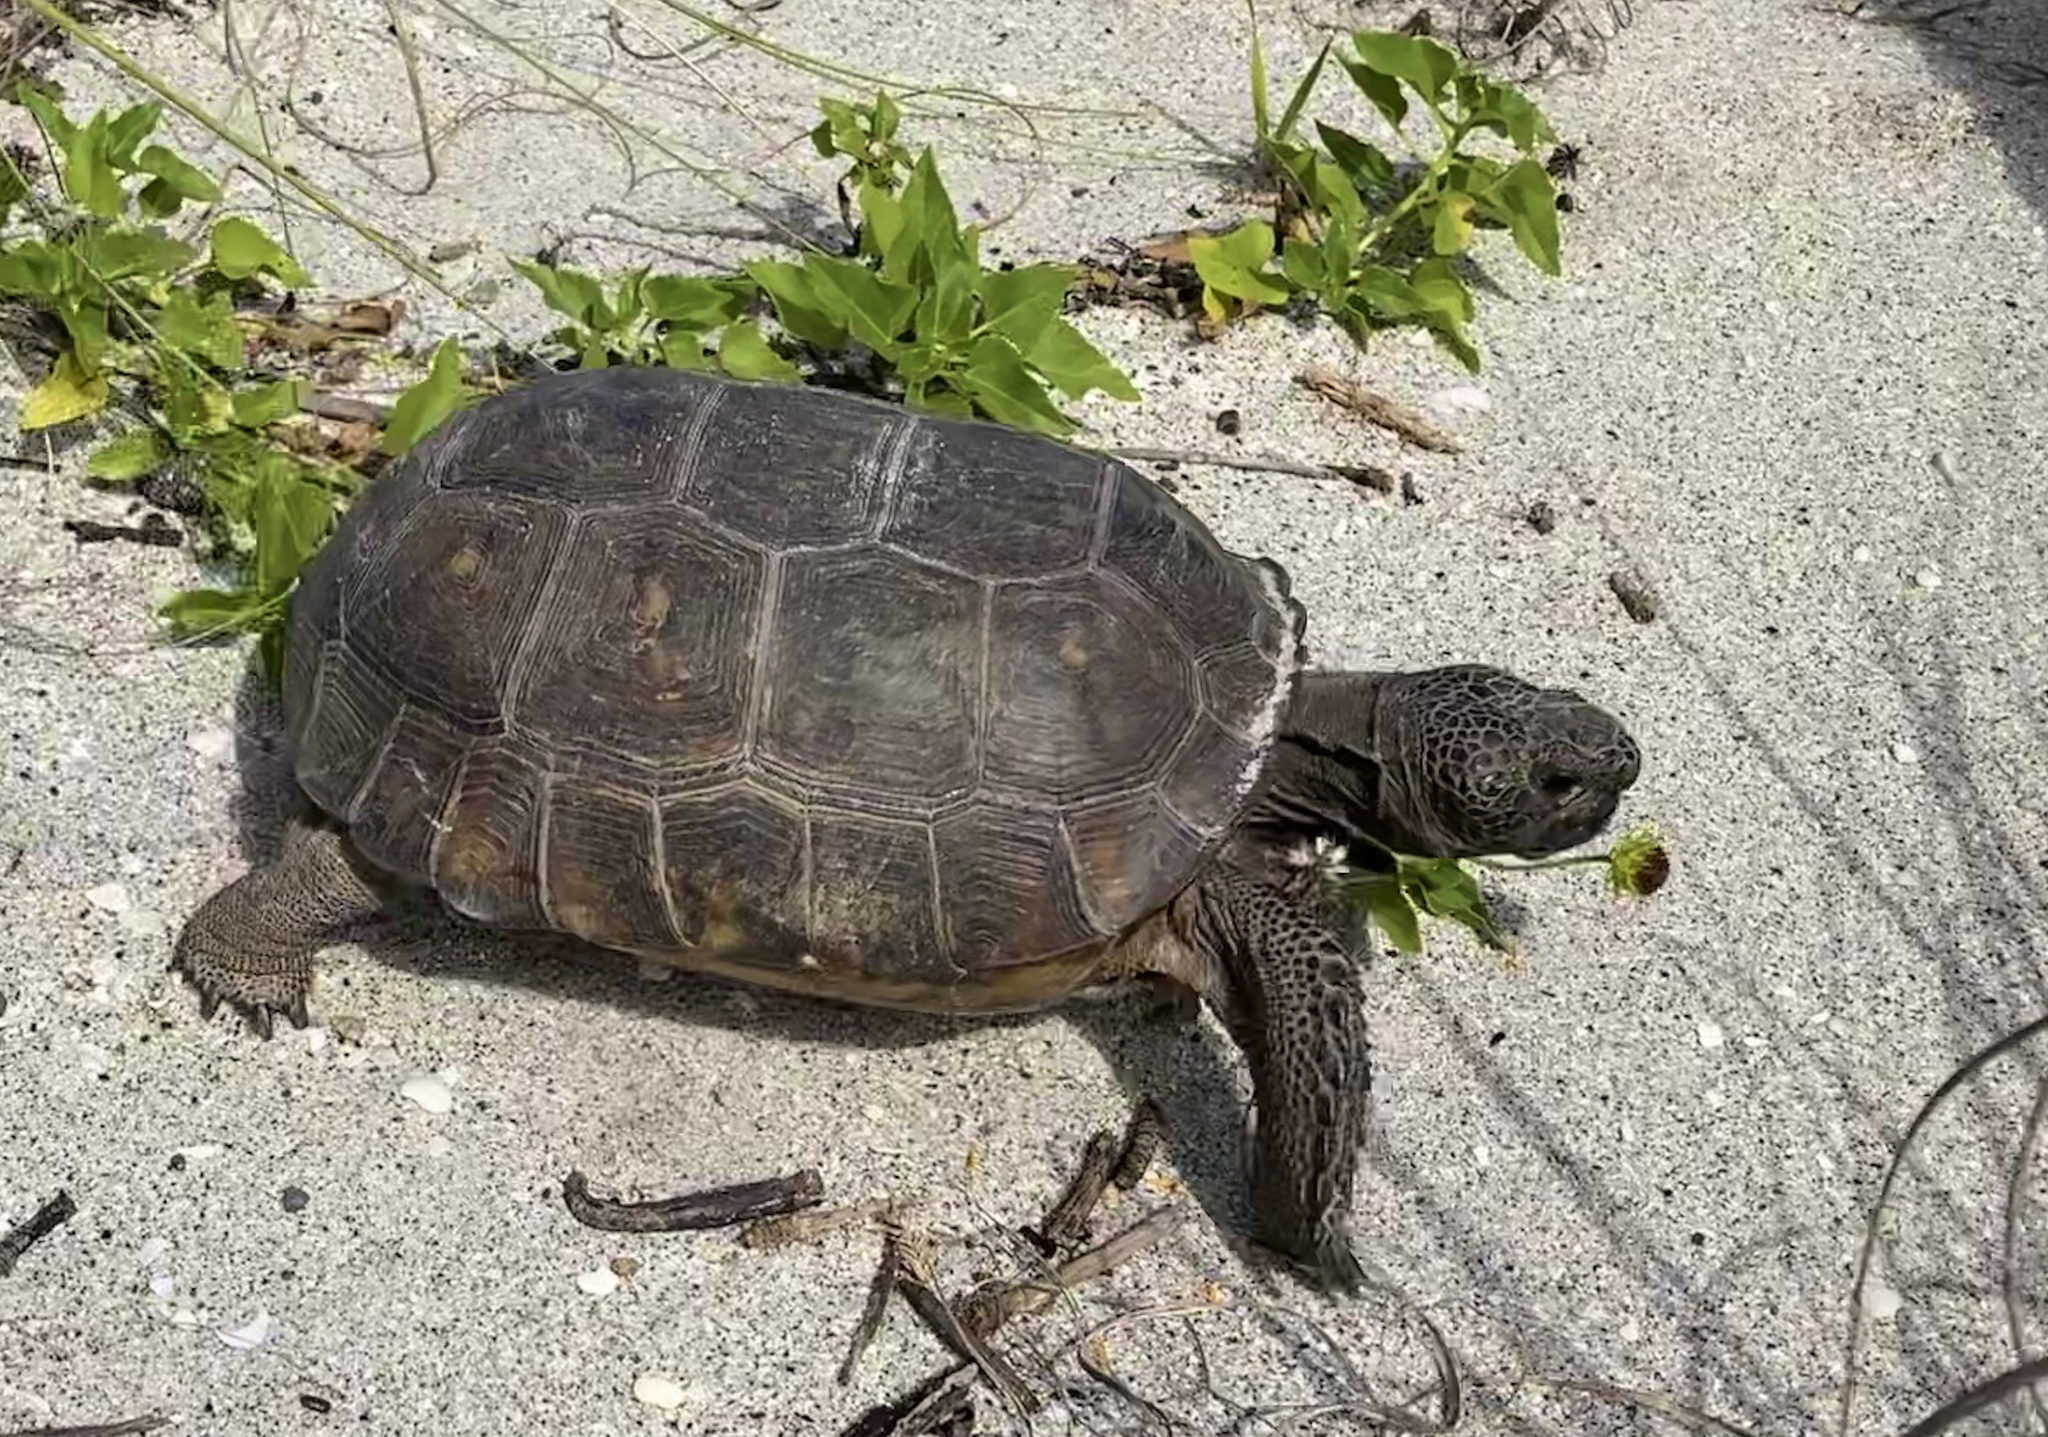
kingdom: Animalia
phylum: Chordata
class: Testudines
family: Testudinidae
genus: Gopherus
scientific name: Gopherus polyphemus
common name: Florida gopher tortoise
